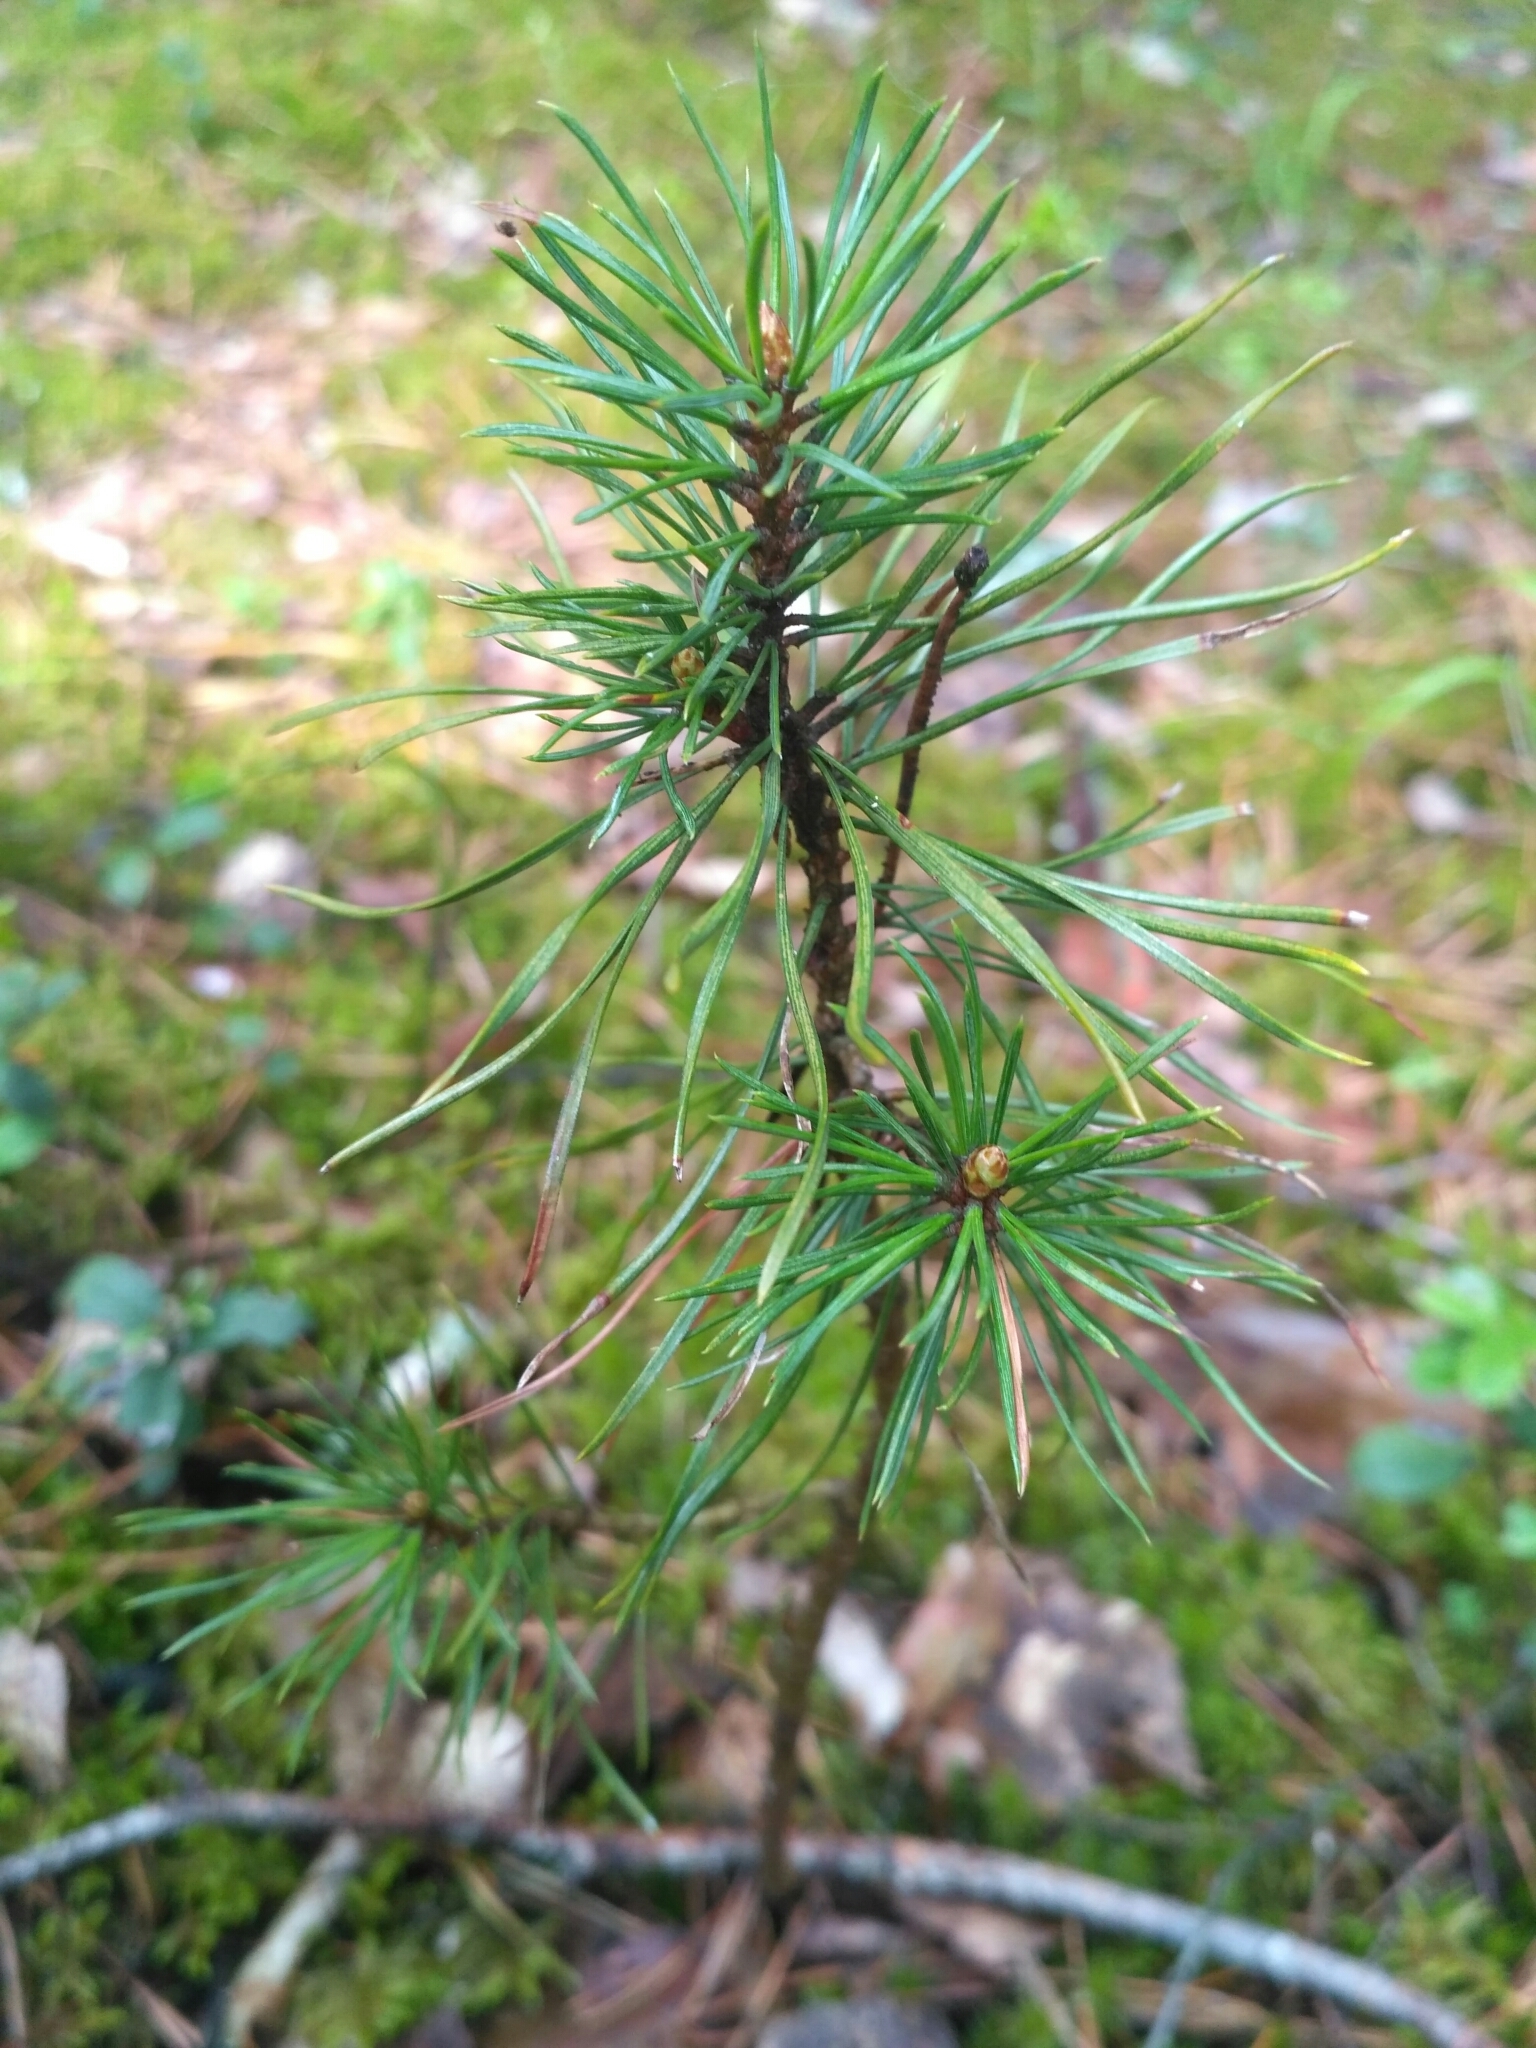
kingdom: Plantae
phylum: Tracheophyta
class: Pinopsida
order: Pinales
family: Pinaceae
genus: Pinus
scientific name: Pinus sylvestris
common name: Scots pine
